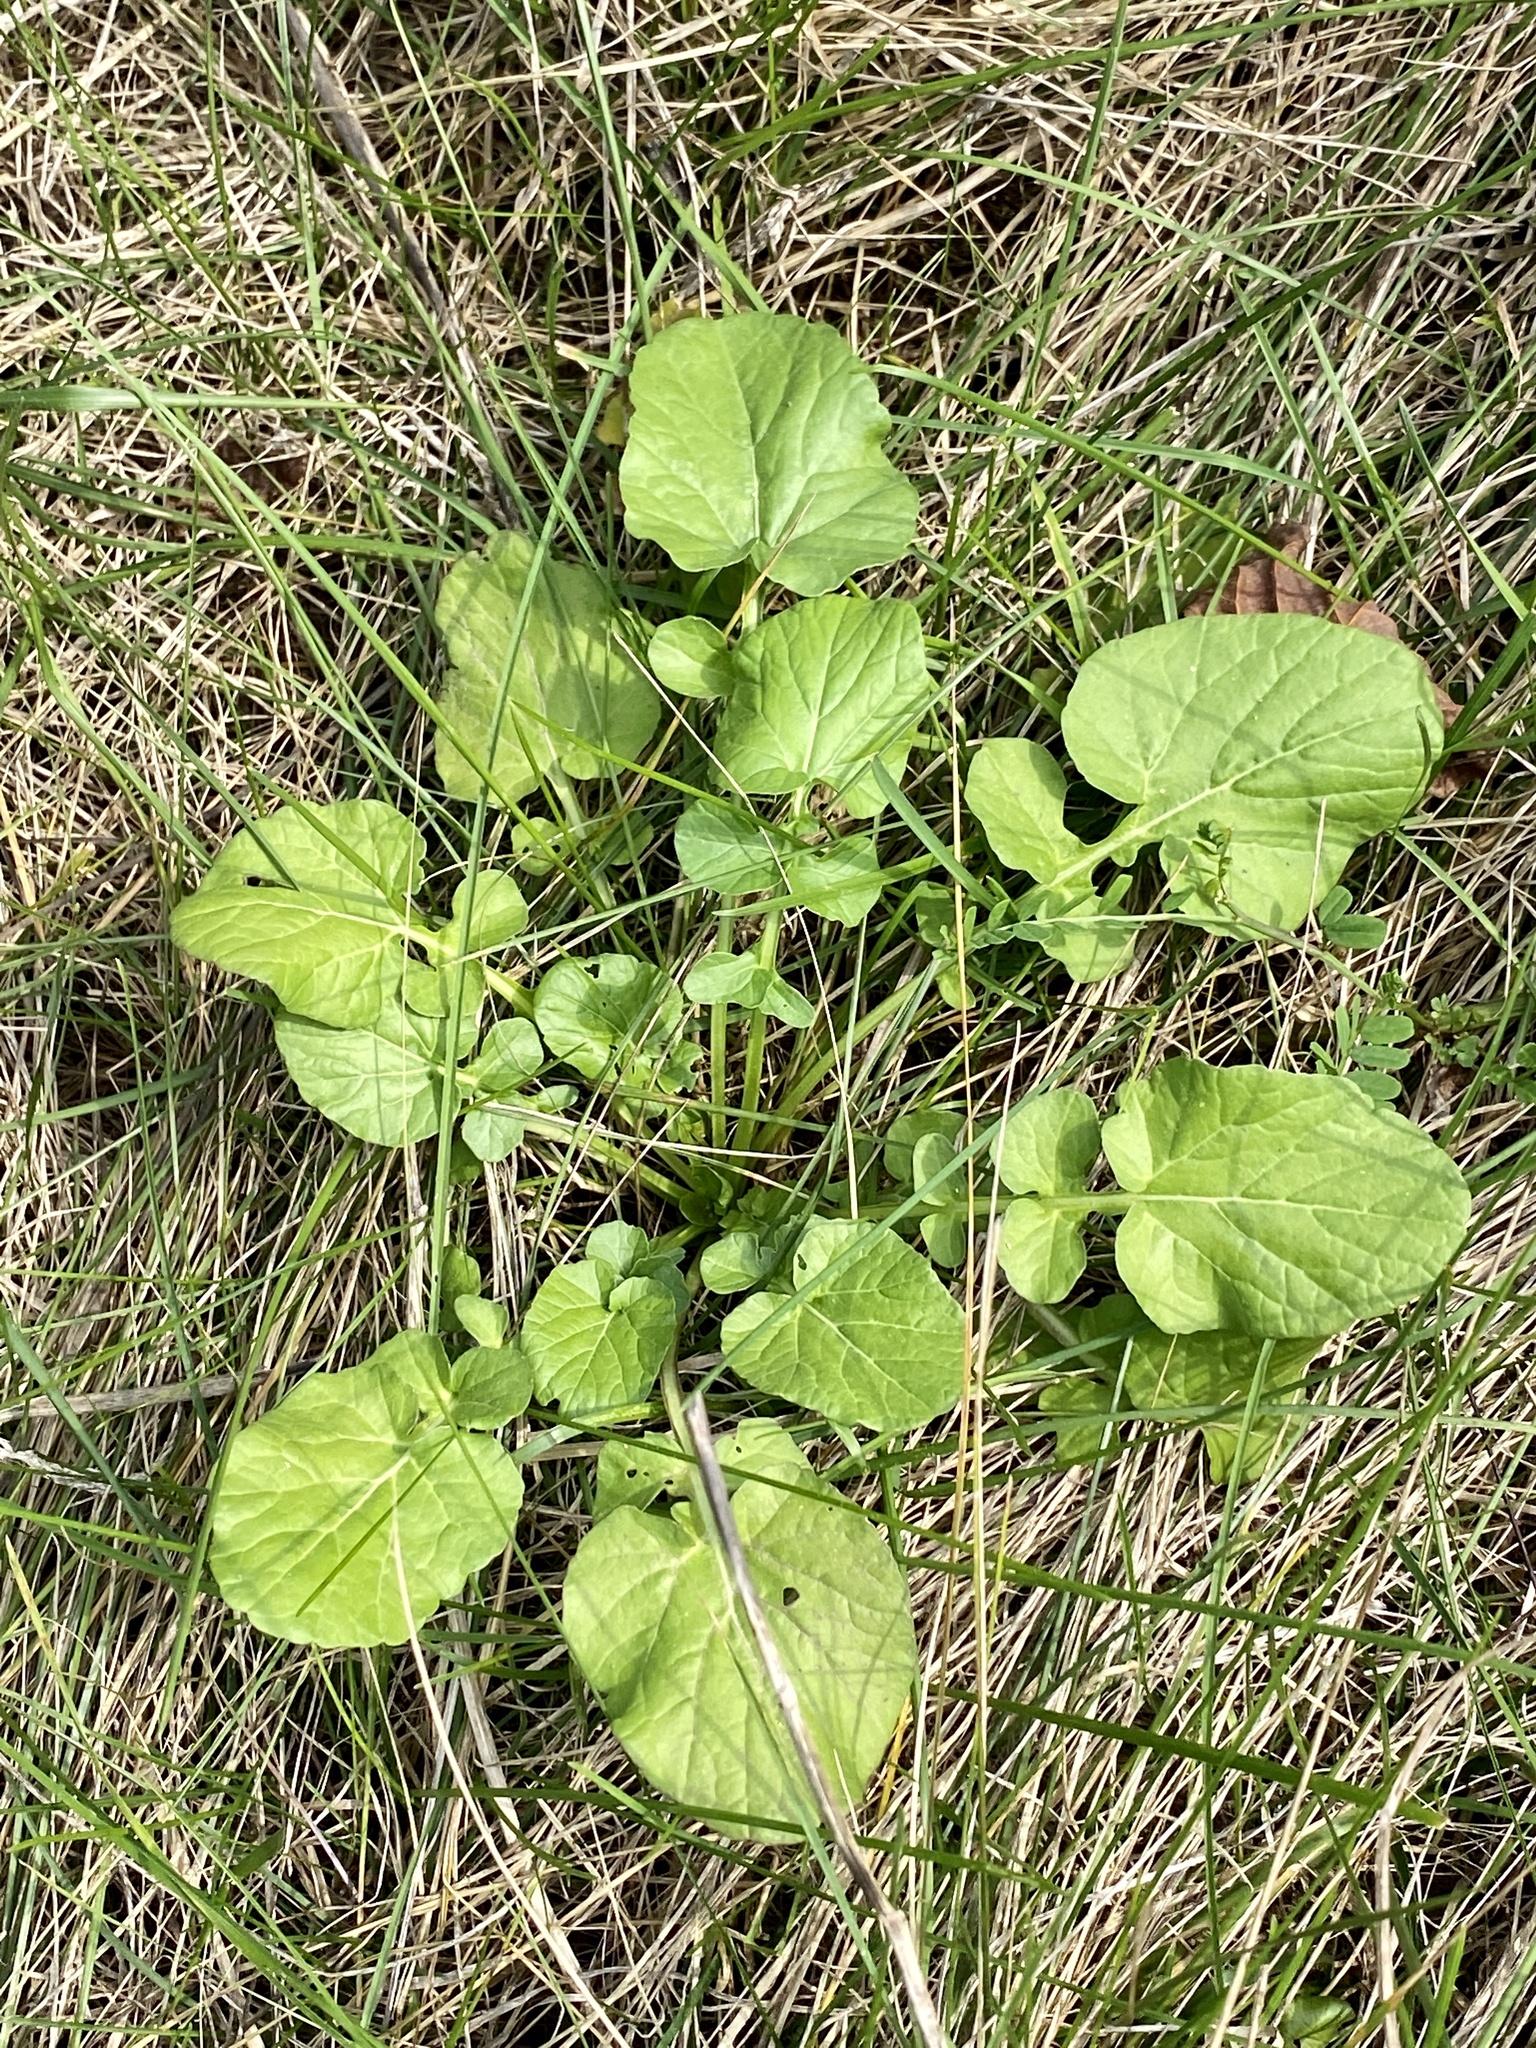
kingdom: Plantae
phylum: Tracheophyta
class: Magnoliopsida
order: Brassicales
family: Brassicaceae
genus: Barbarea
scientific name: Barbarea vulgaris
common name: Cressy-greens
